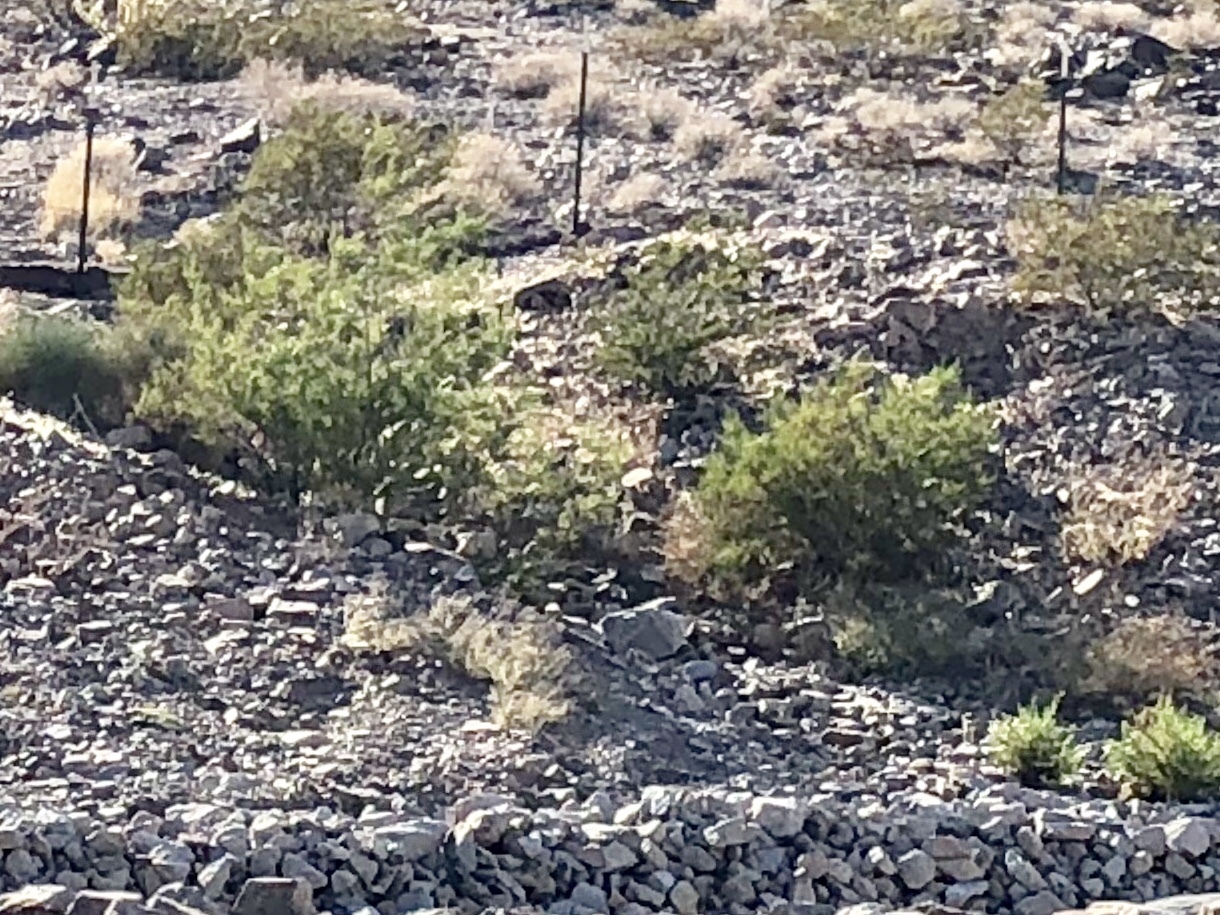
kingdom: Plantae
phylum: Tracheophyta
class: Magnoliopsida
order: Zygophyllales
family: Zygophyllaceae
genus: Larrea
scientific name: Larrea tridentata
